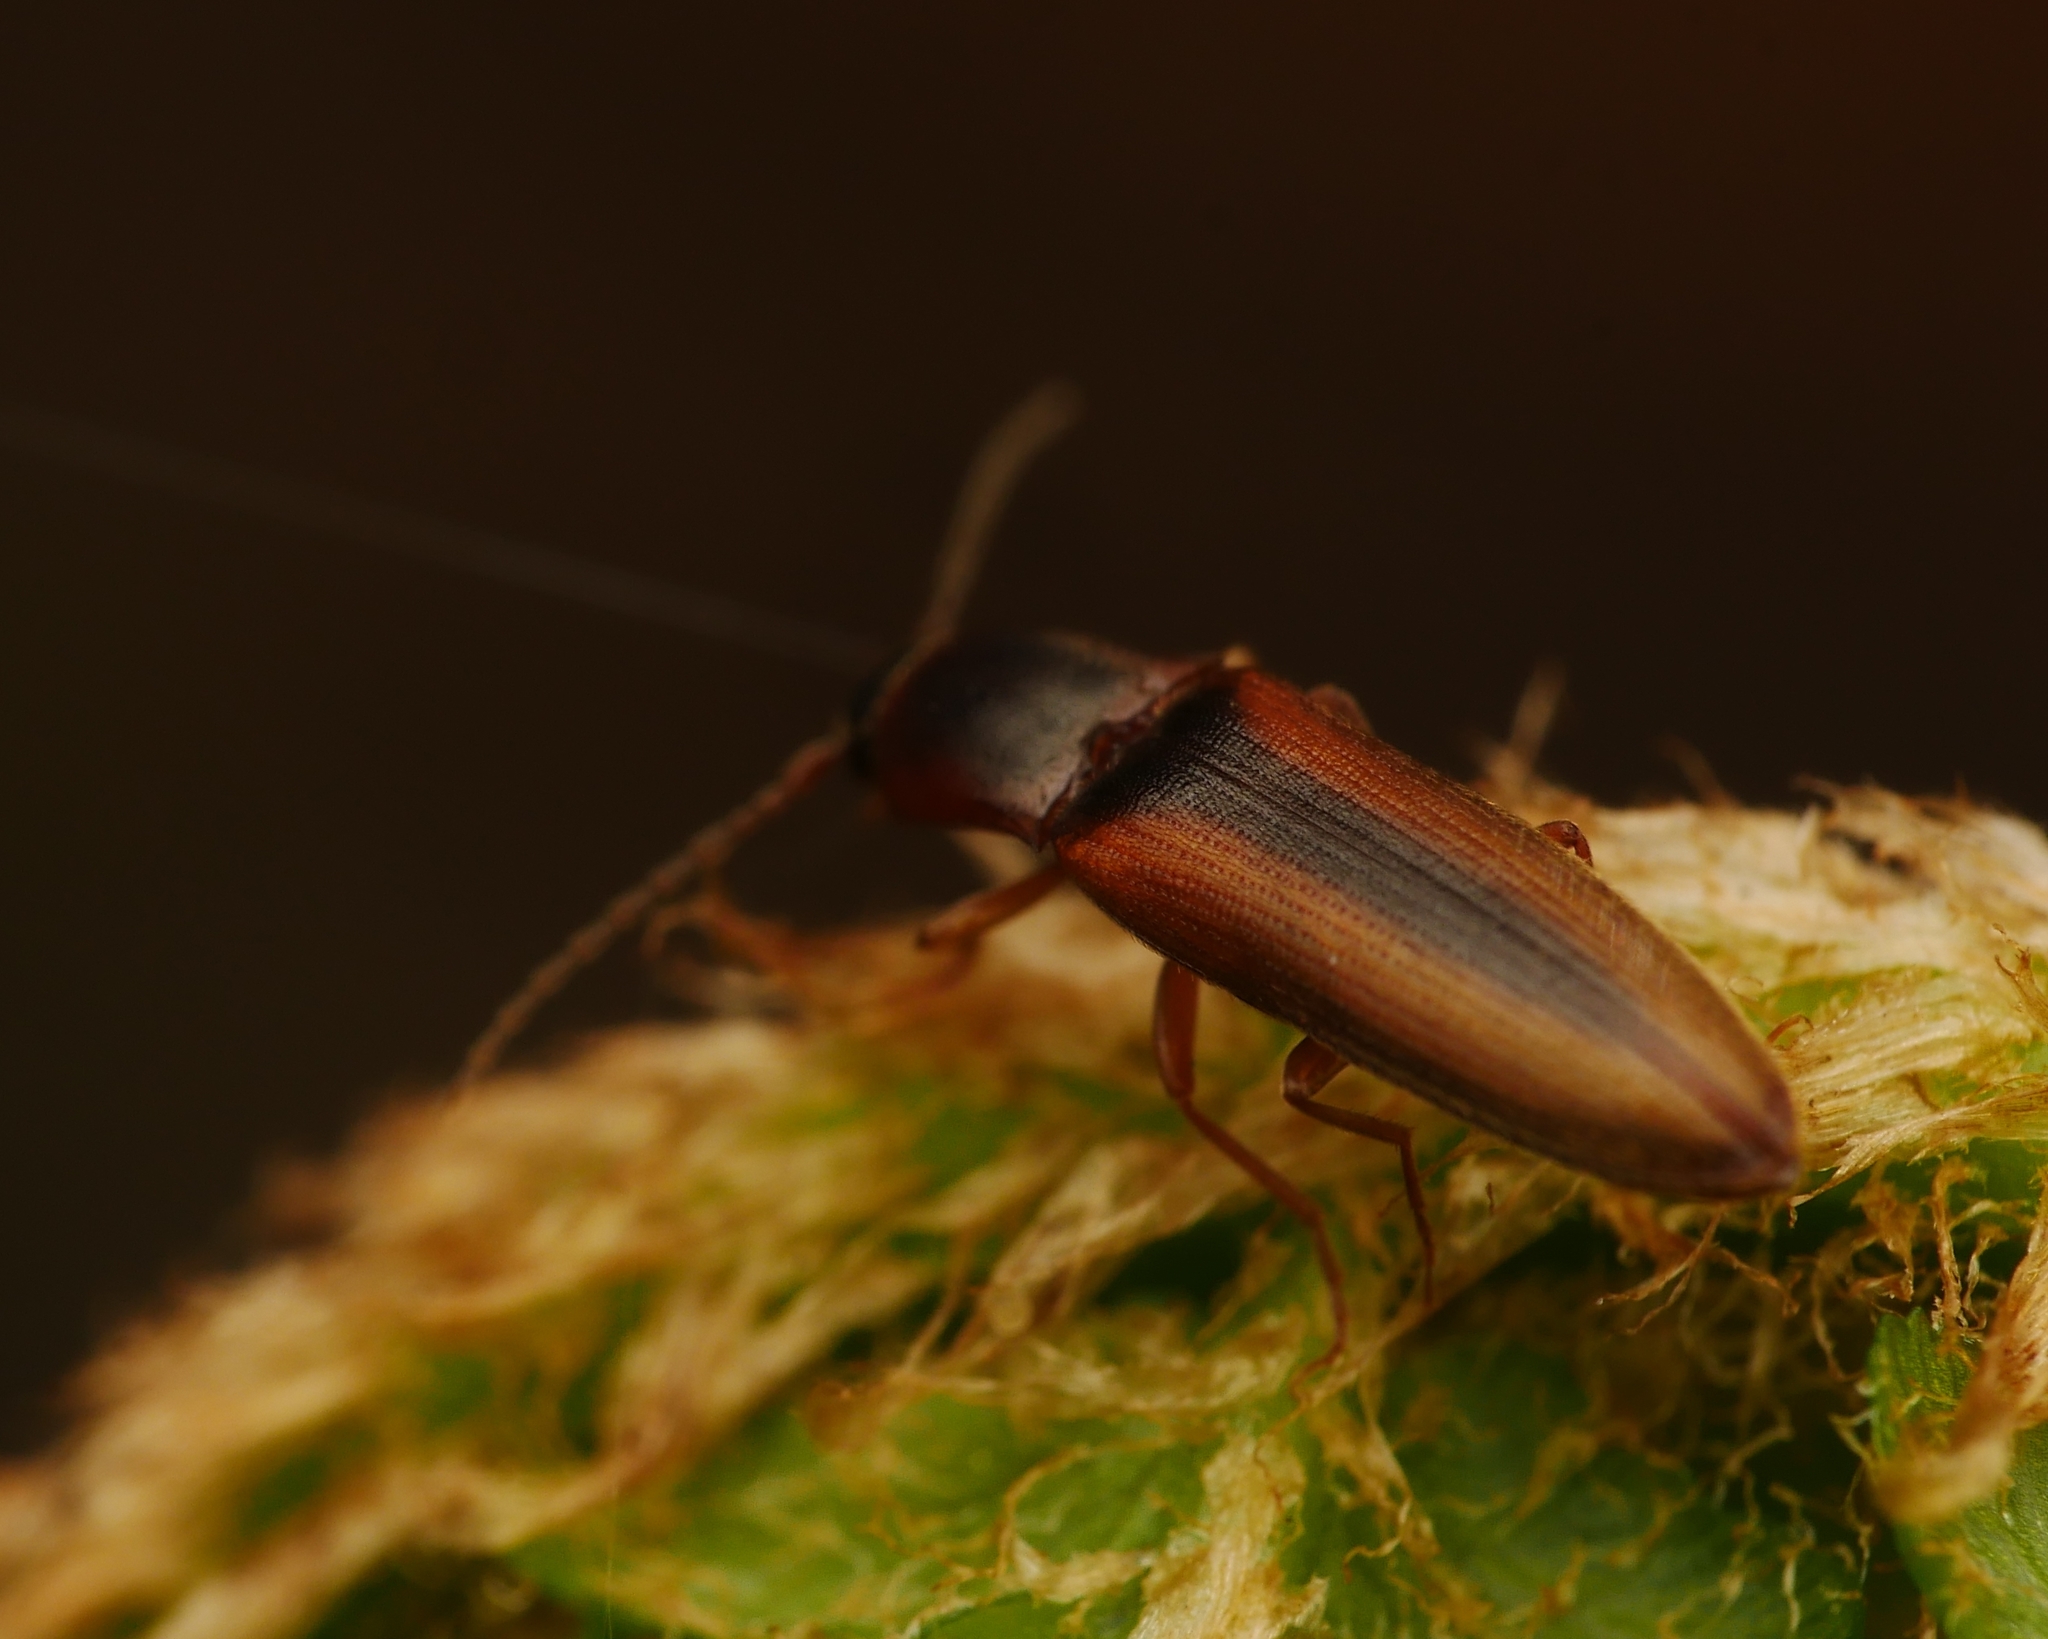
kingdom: Animalia
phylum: Arthropoda
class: Insecta
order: Coleoptera
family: Elateridae
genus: Dalopius
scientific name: Dalopius marginatus
